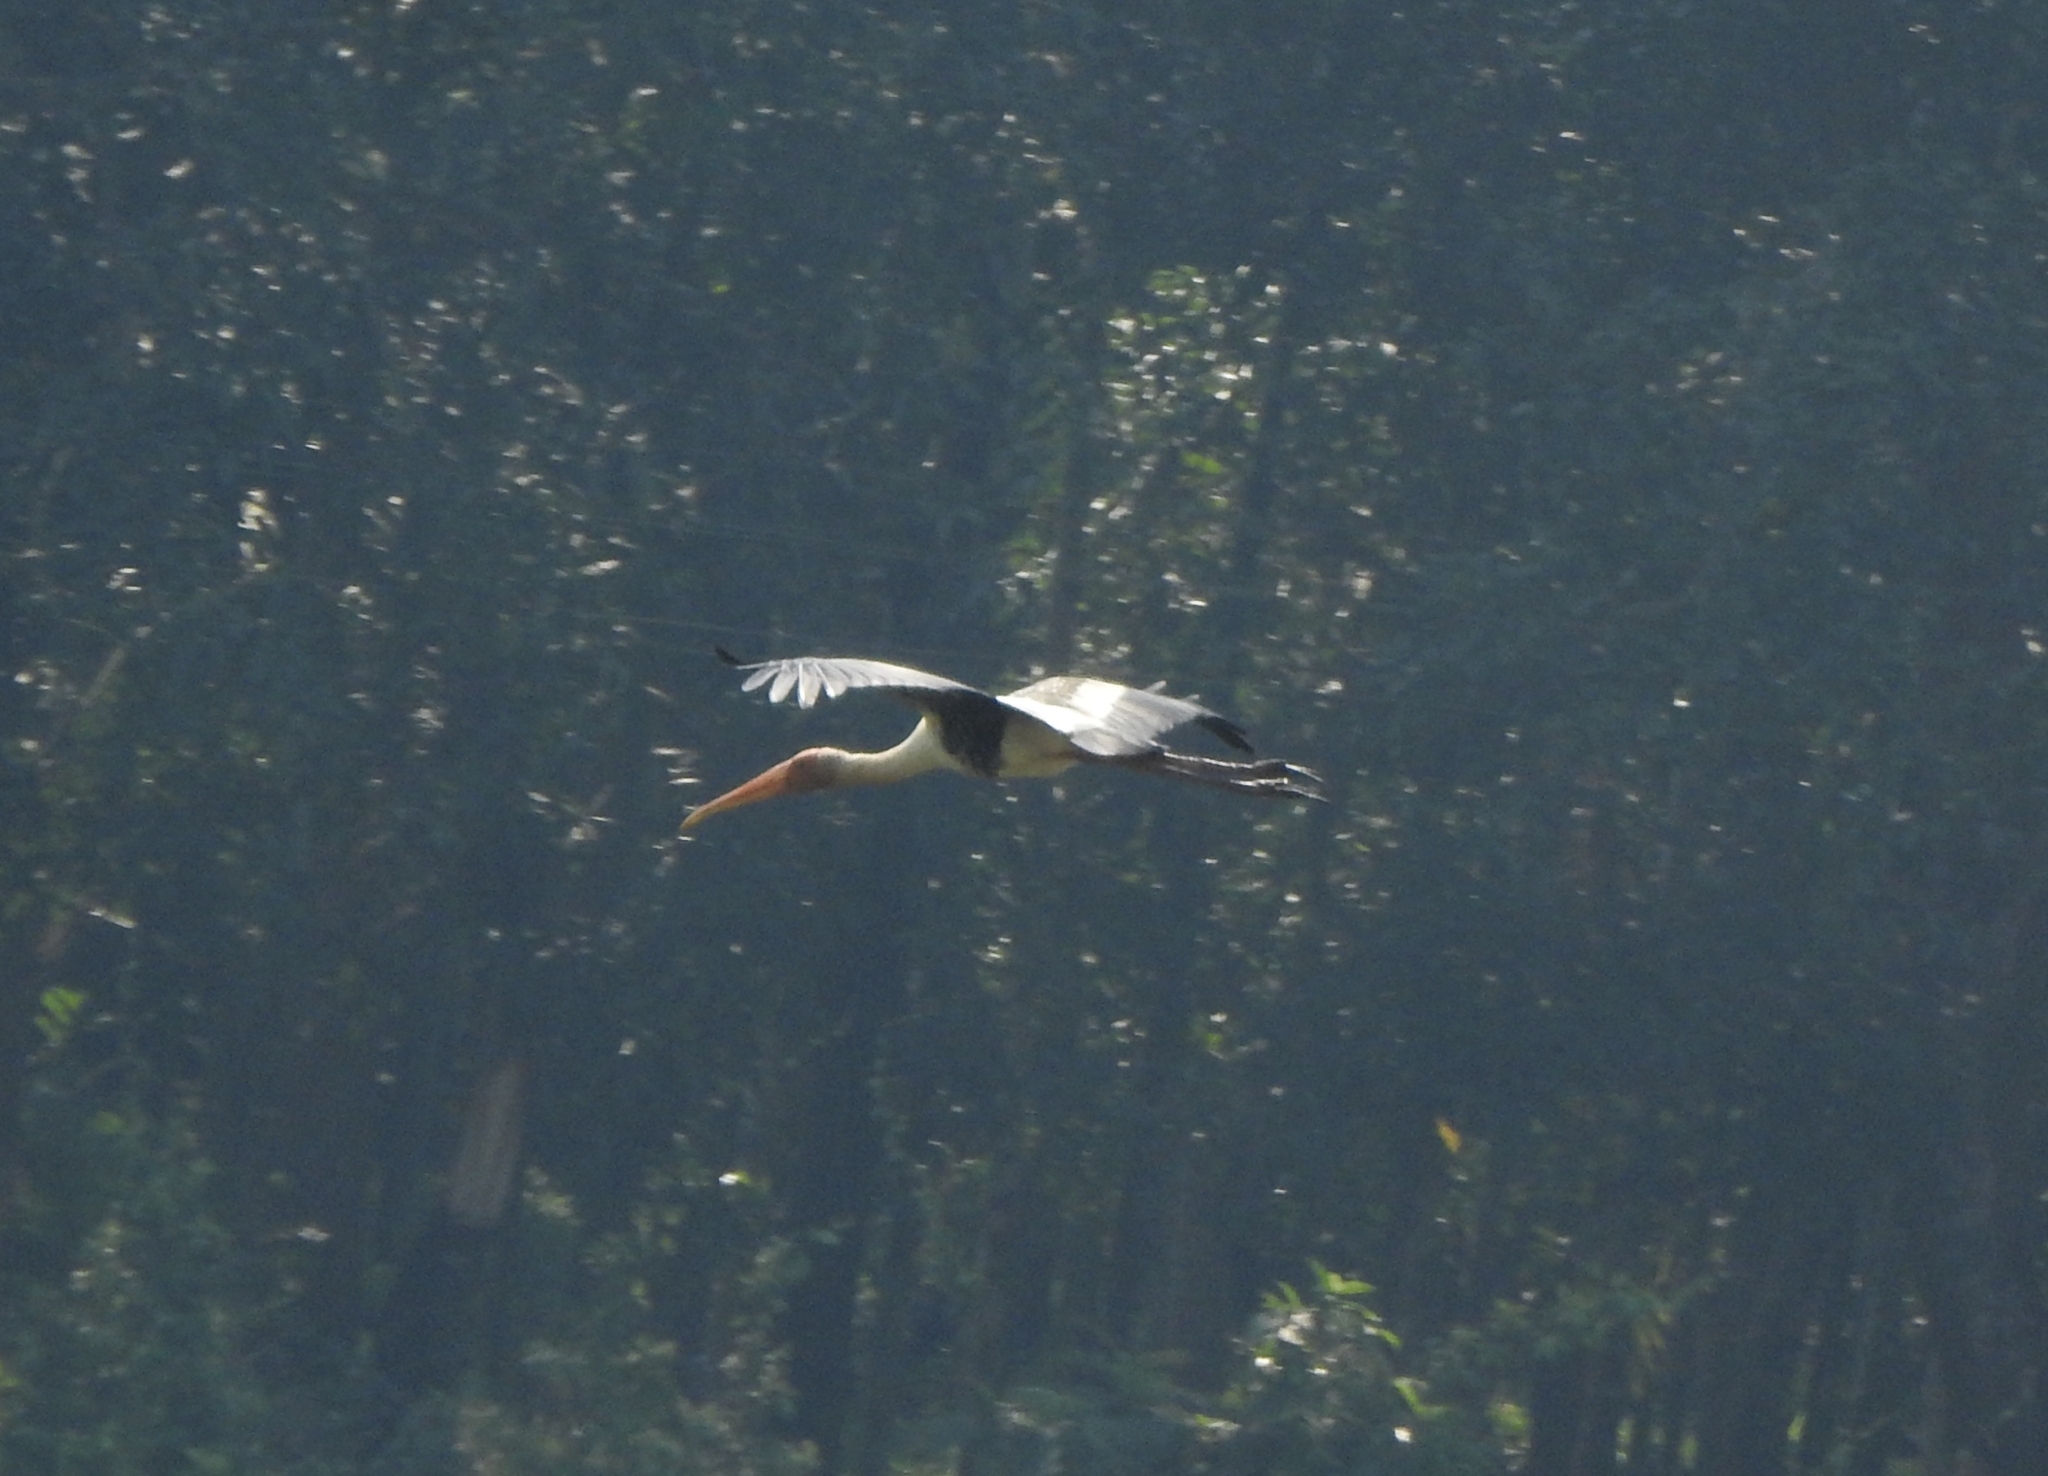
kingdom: Animalia
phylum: Chordata
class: Aves
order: Ciconiiformes
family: Ciconiidae
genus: Mycteria
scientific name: Mycteria leucocephala
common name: Painted stork
